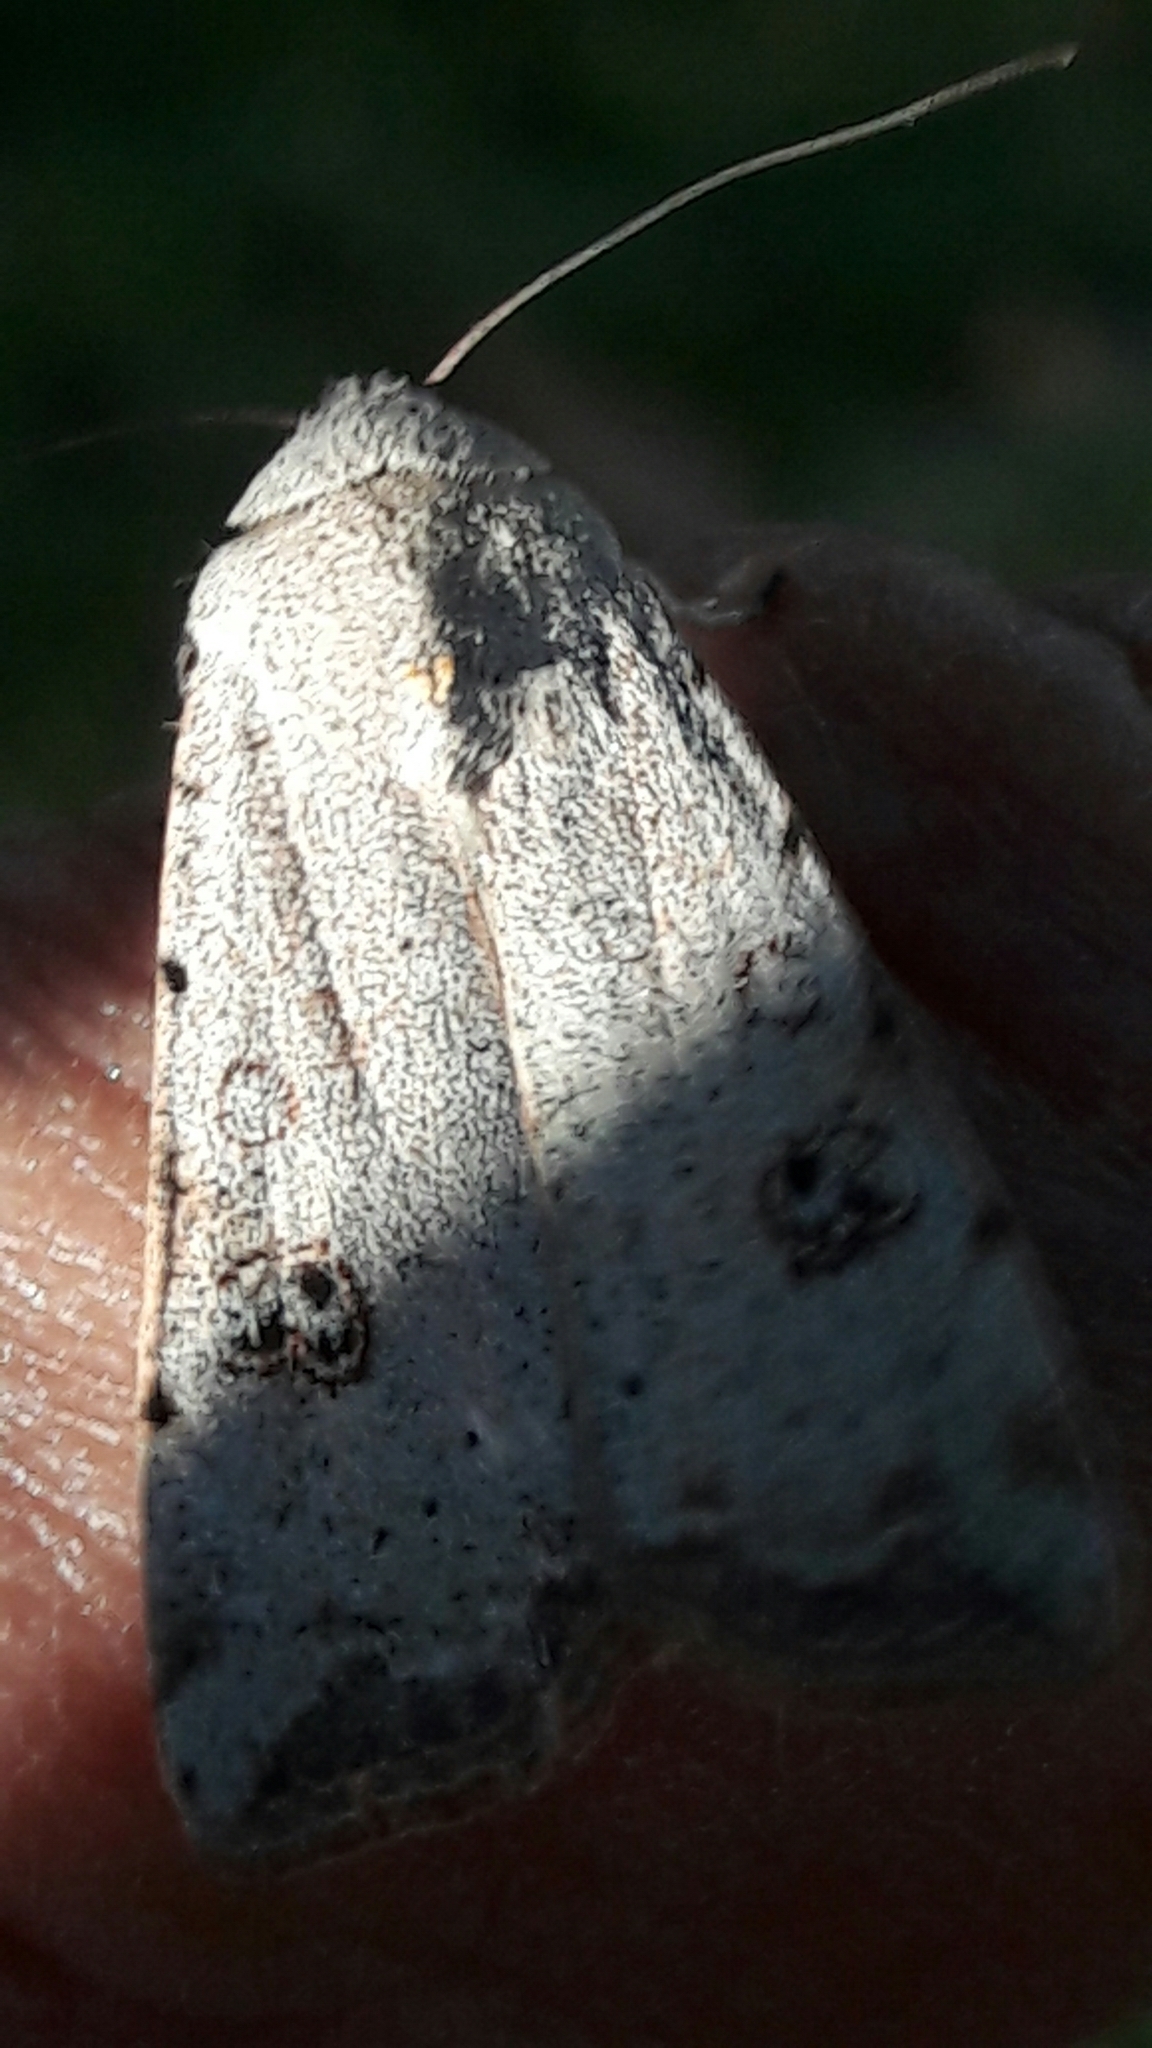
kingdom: Animalia
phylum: Arthropoda
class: Insecta
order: Lepidoptera
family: Noctuidae
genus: Anicla
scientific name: Anicla infecta
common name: Green cutworm
